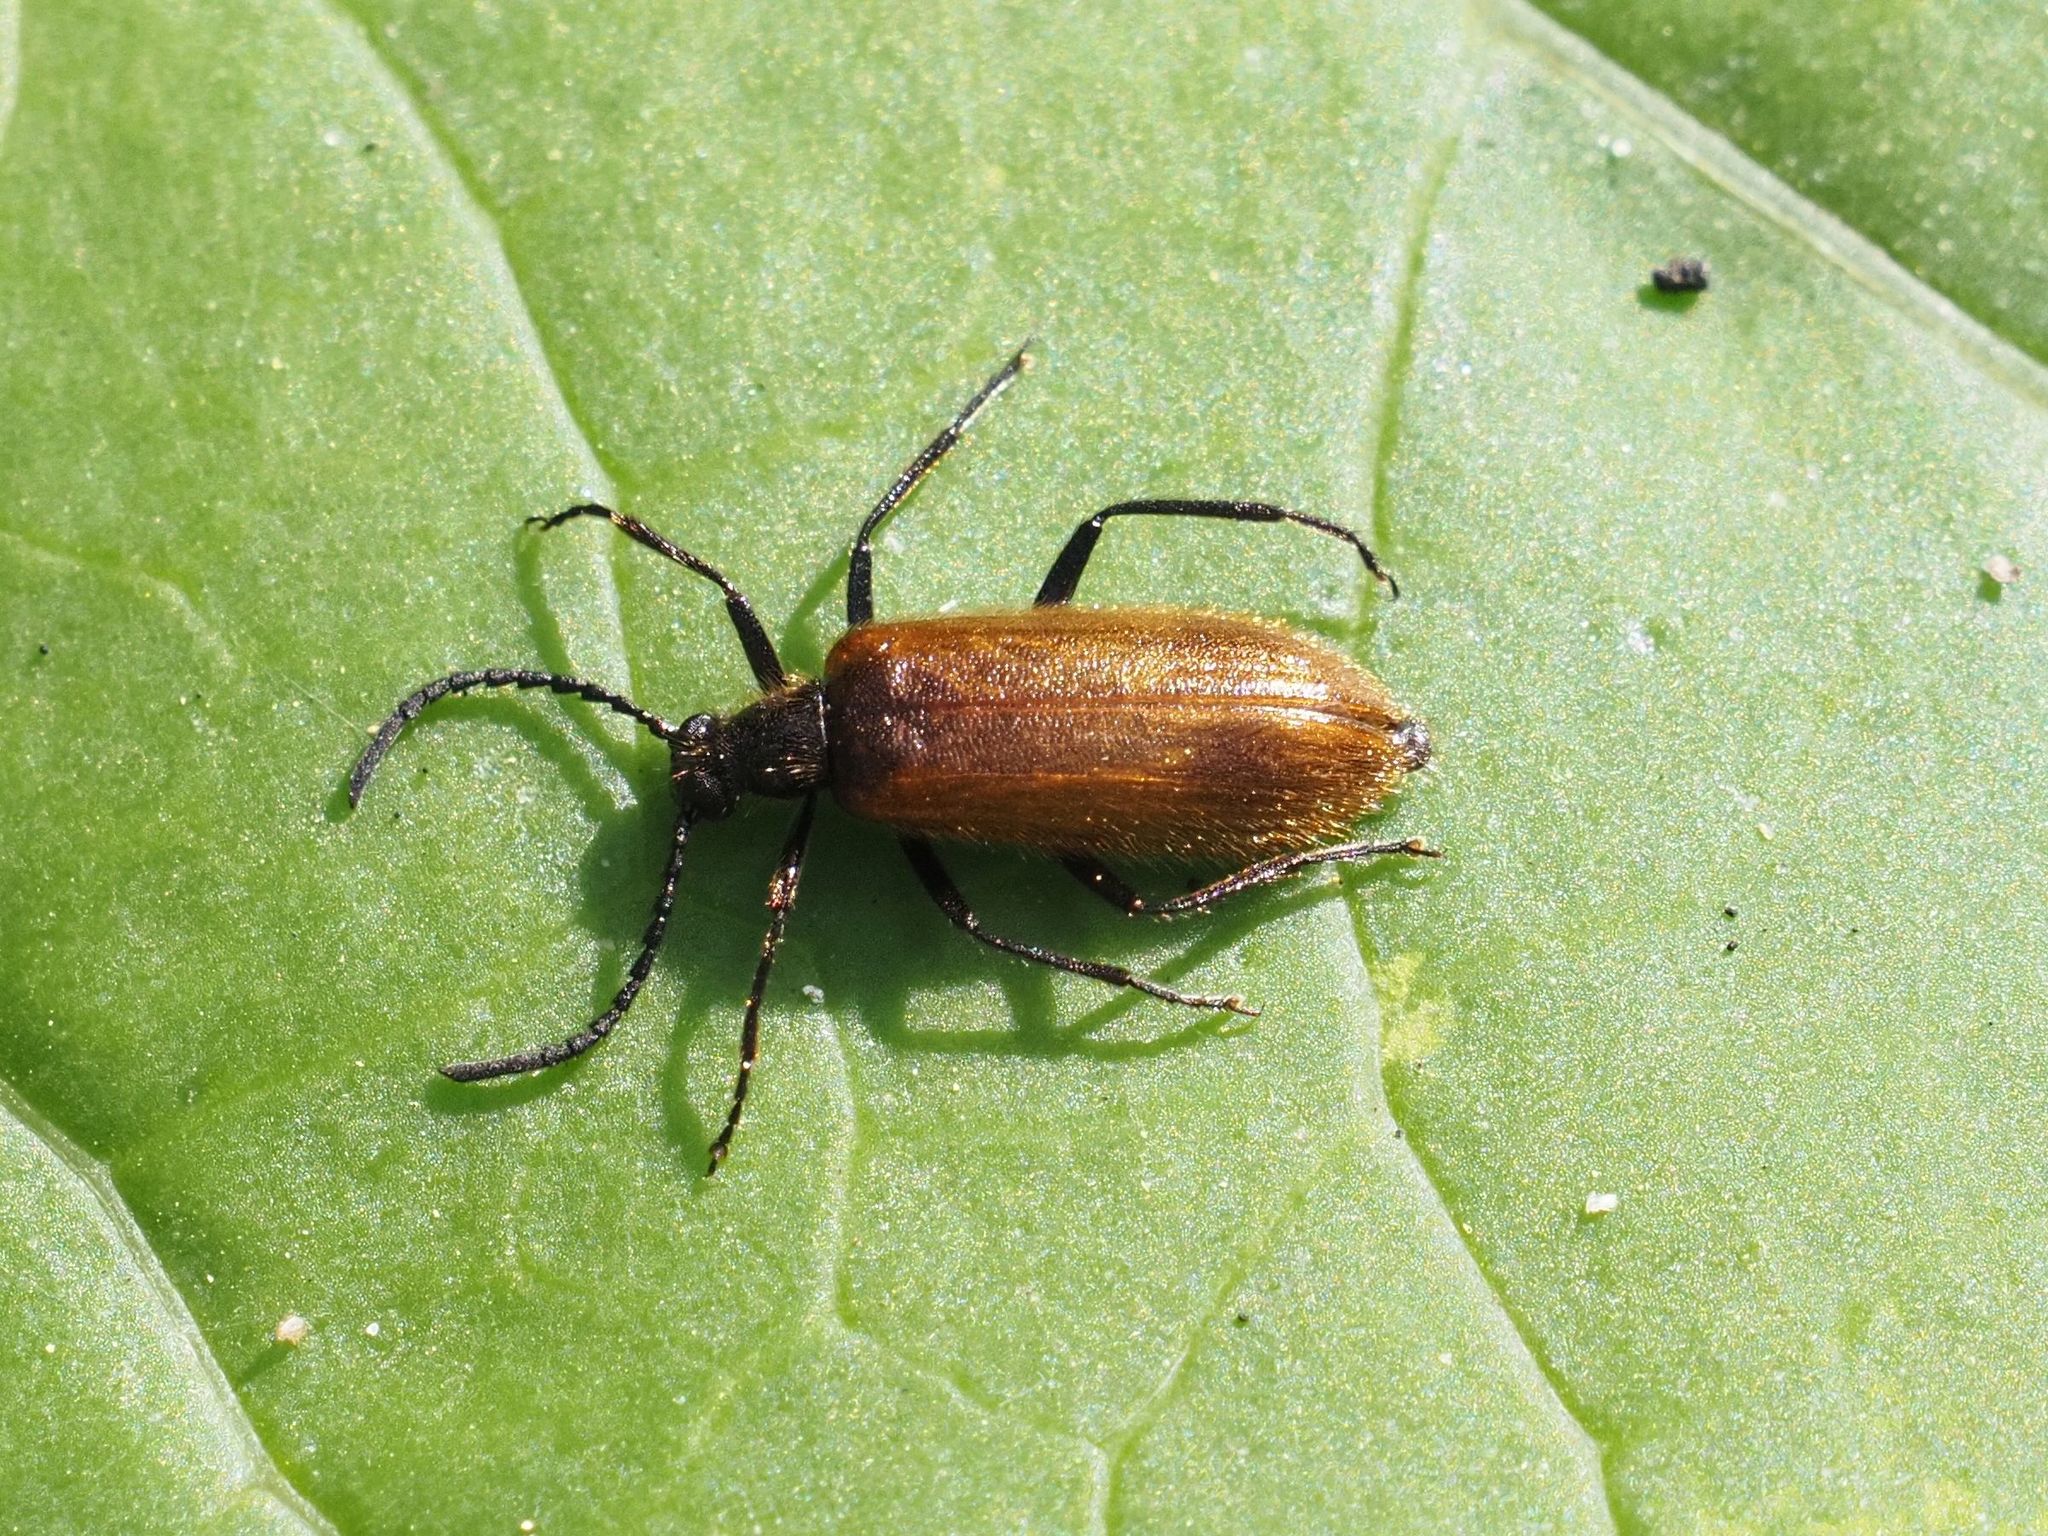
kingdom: Animalia
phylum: Arthropoda
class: Insecta
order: Coleoptera
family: Tenebrionidae
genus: Lagria
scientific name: Lagria hirta
